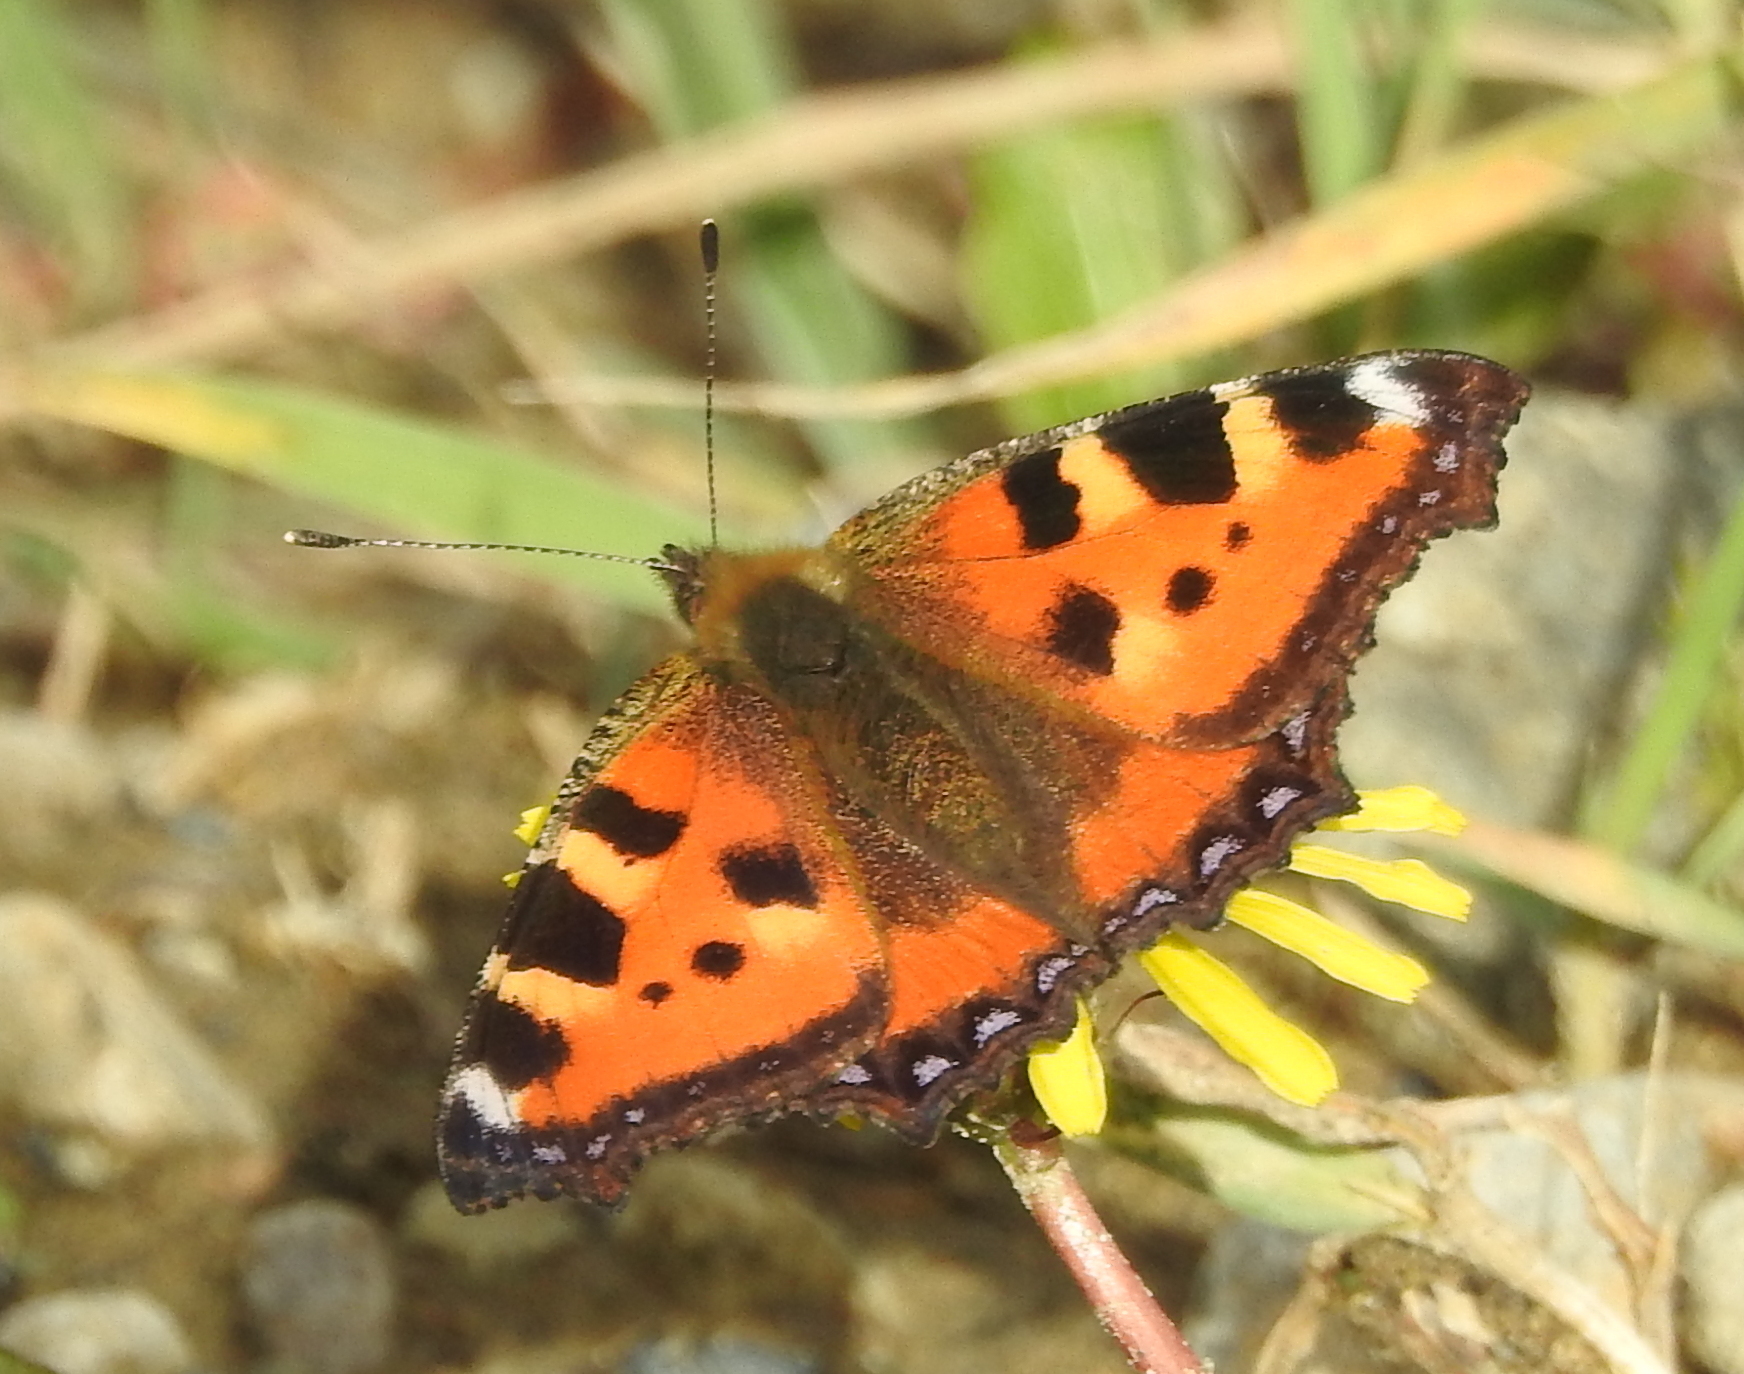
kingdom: Animalia
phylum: Arthropoda
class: Insecta
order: Lepidoptera
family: Nymphalidae
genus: Aglais
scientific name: Aglais urticae
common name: Small tortoiseshell
